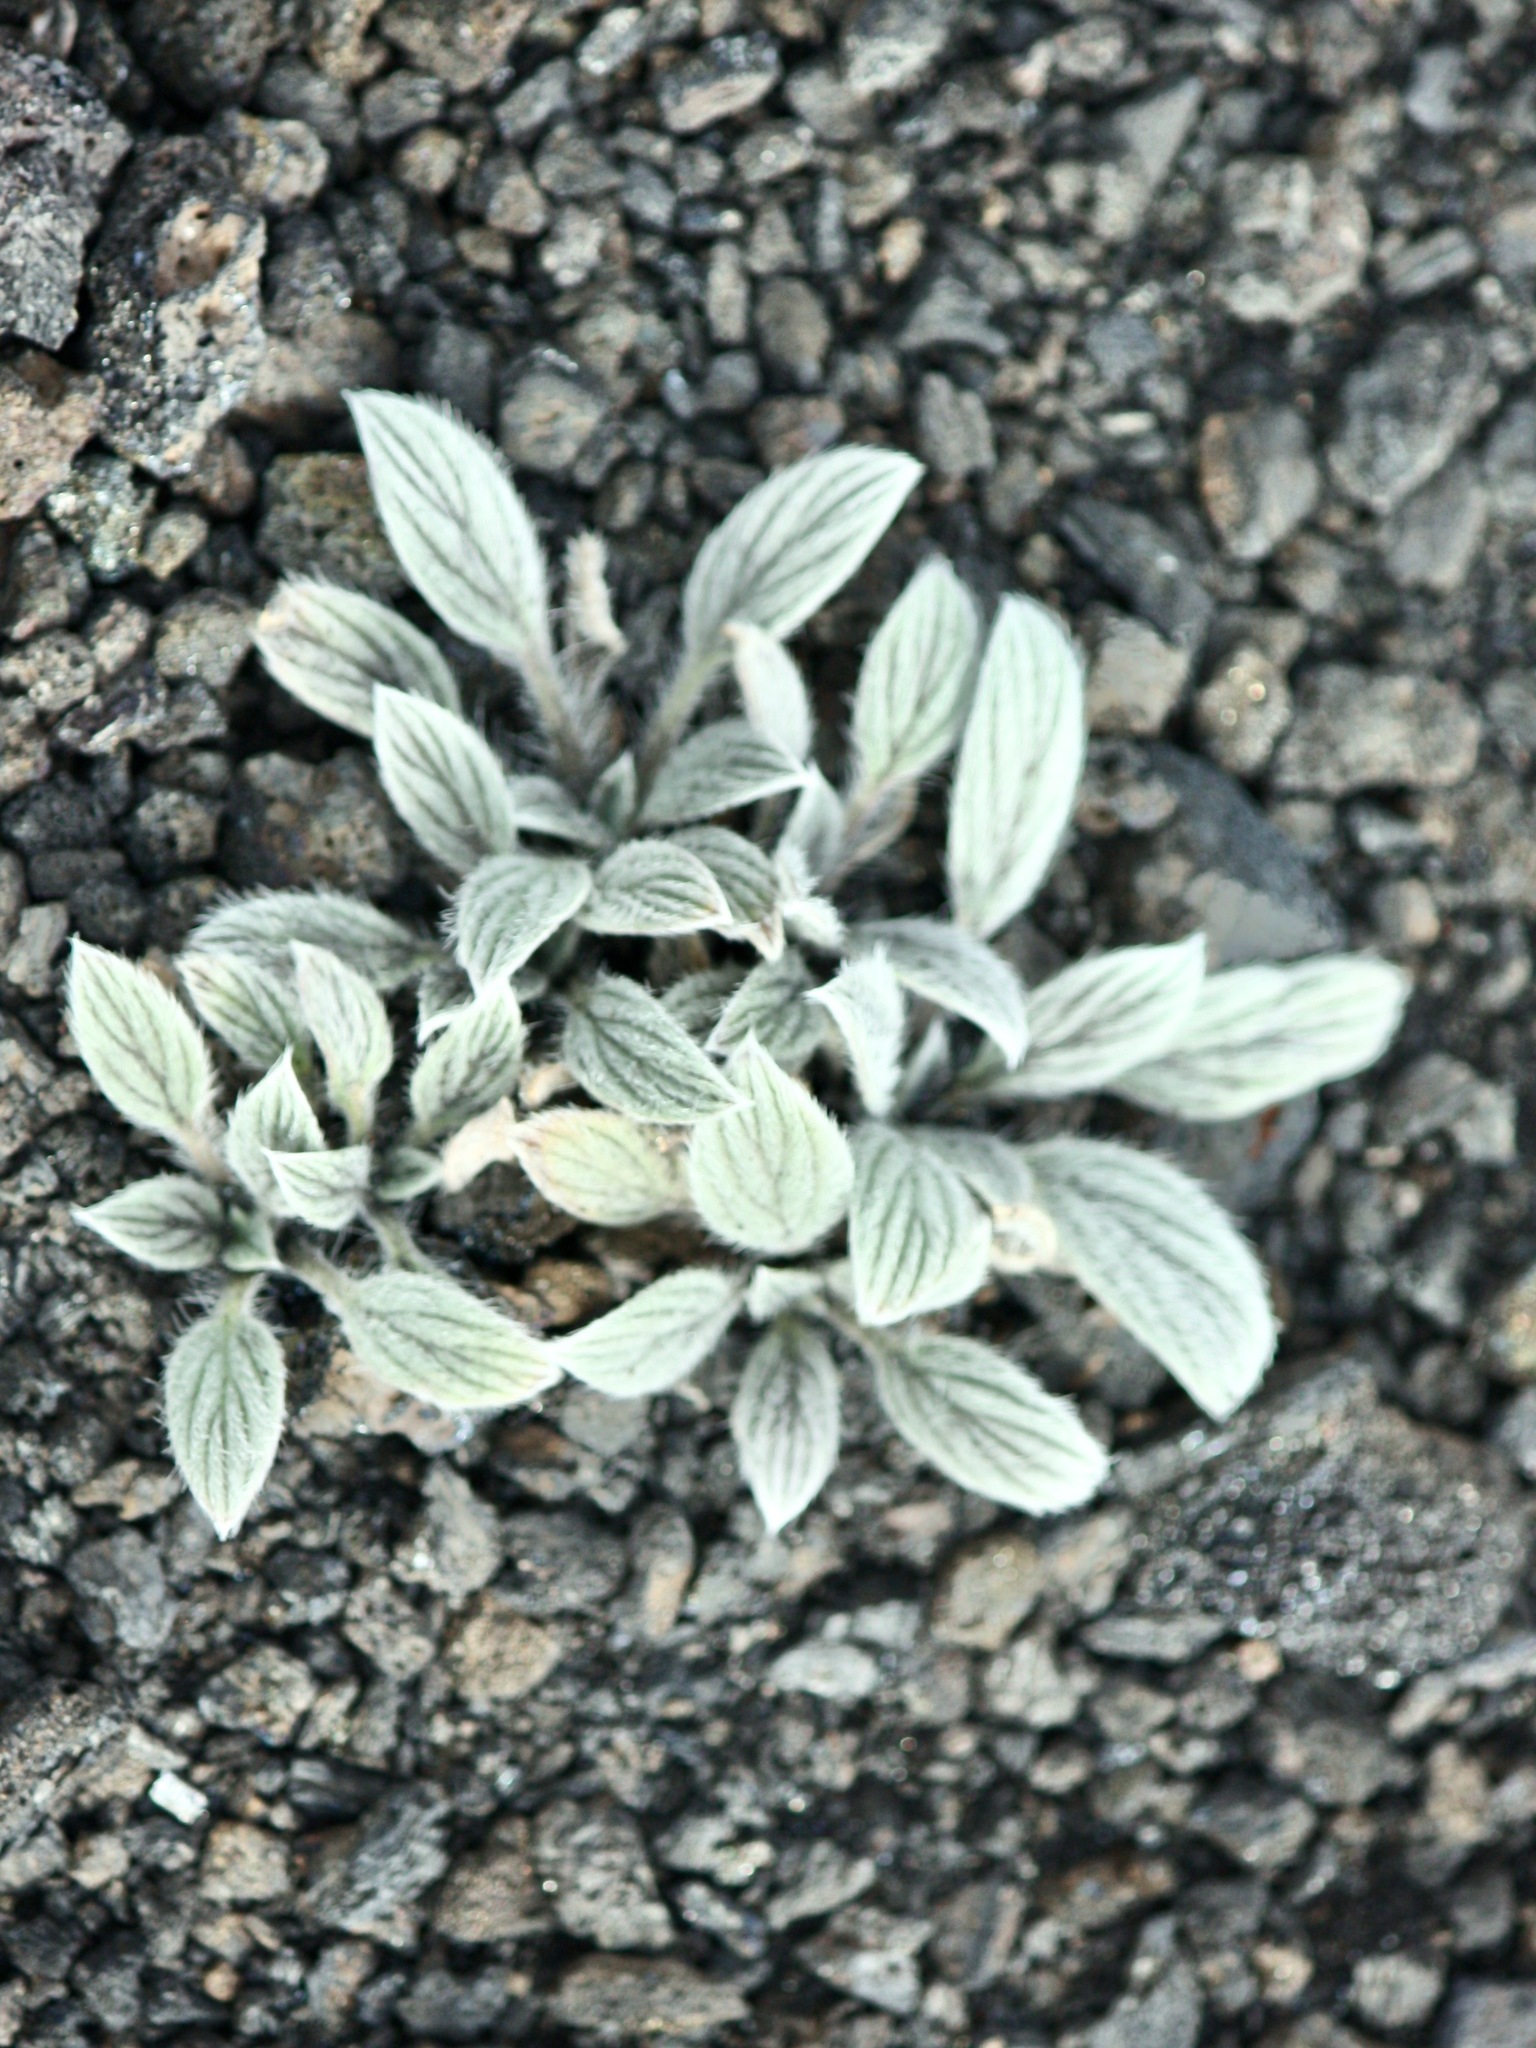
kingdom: Plantae
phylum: Tracheophyta
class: Magnoliopsida
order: Boraginales
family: Hydrophyllaceae
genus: Phacelia
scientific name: Phacelia hastata
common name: Silver-leaved phacelia
